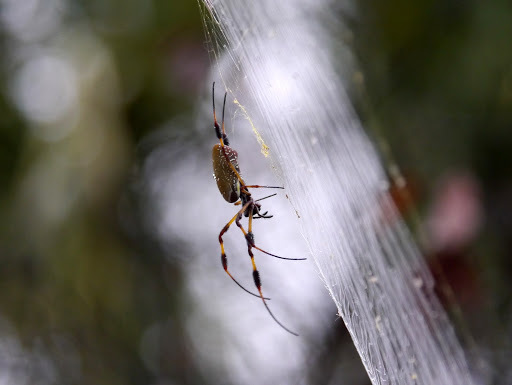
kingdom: Animalia
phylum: Arthropoda
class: Arachnida
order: Araneae
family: Araneidae
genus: Trichonephila
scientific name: Trichonephila clavipes
